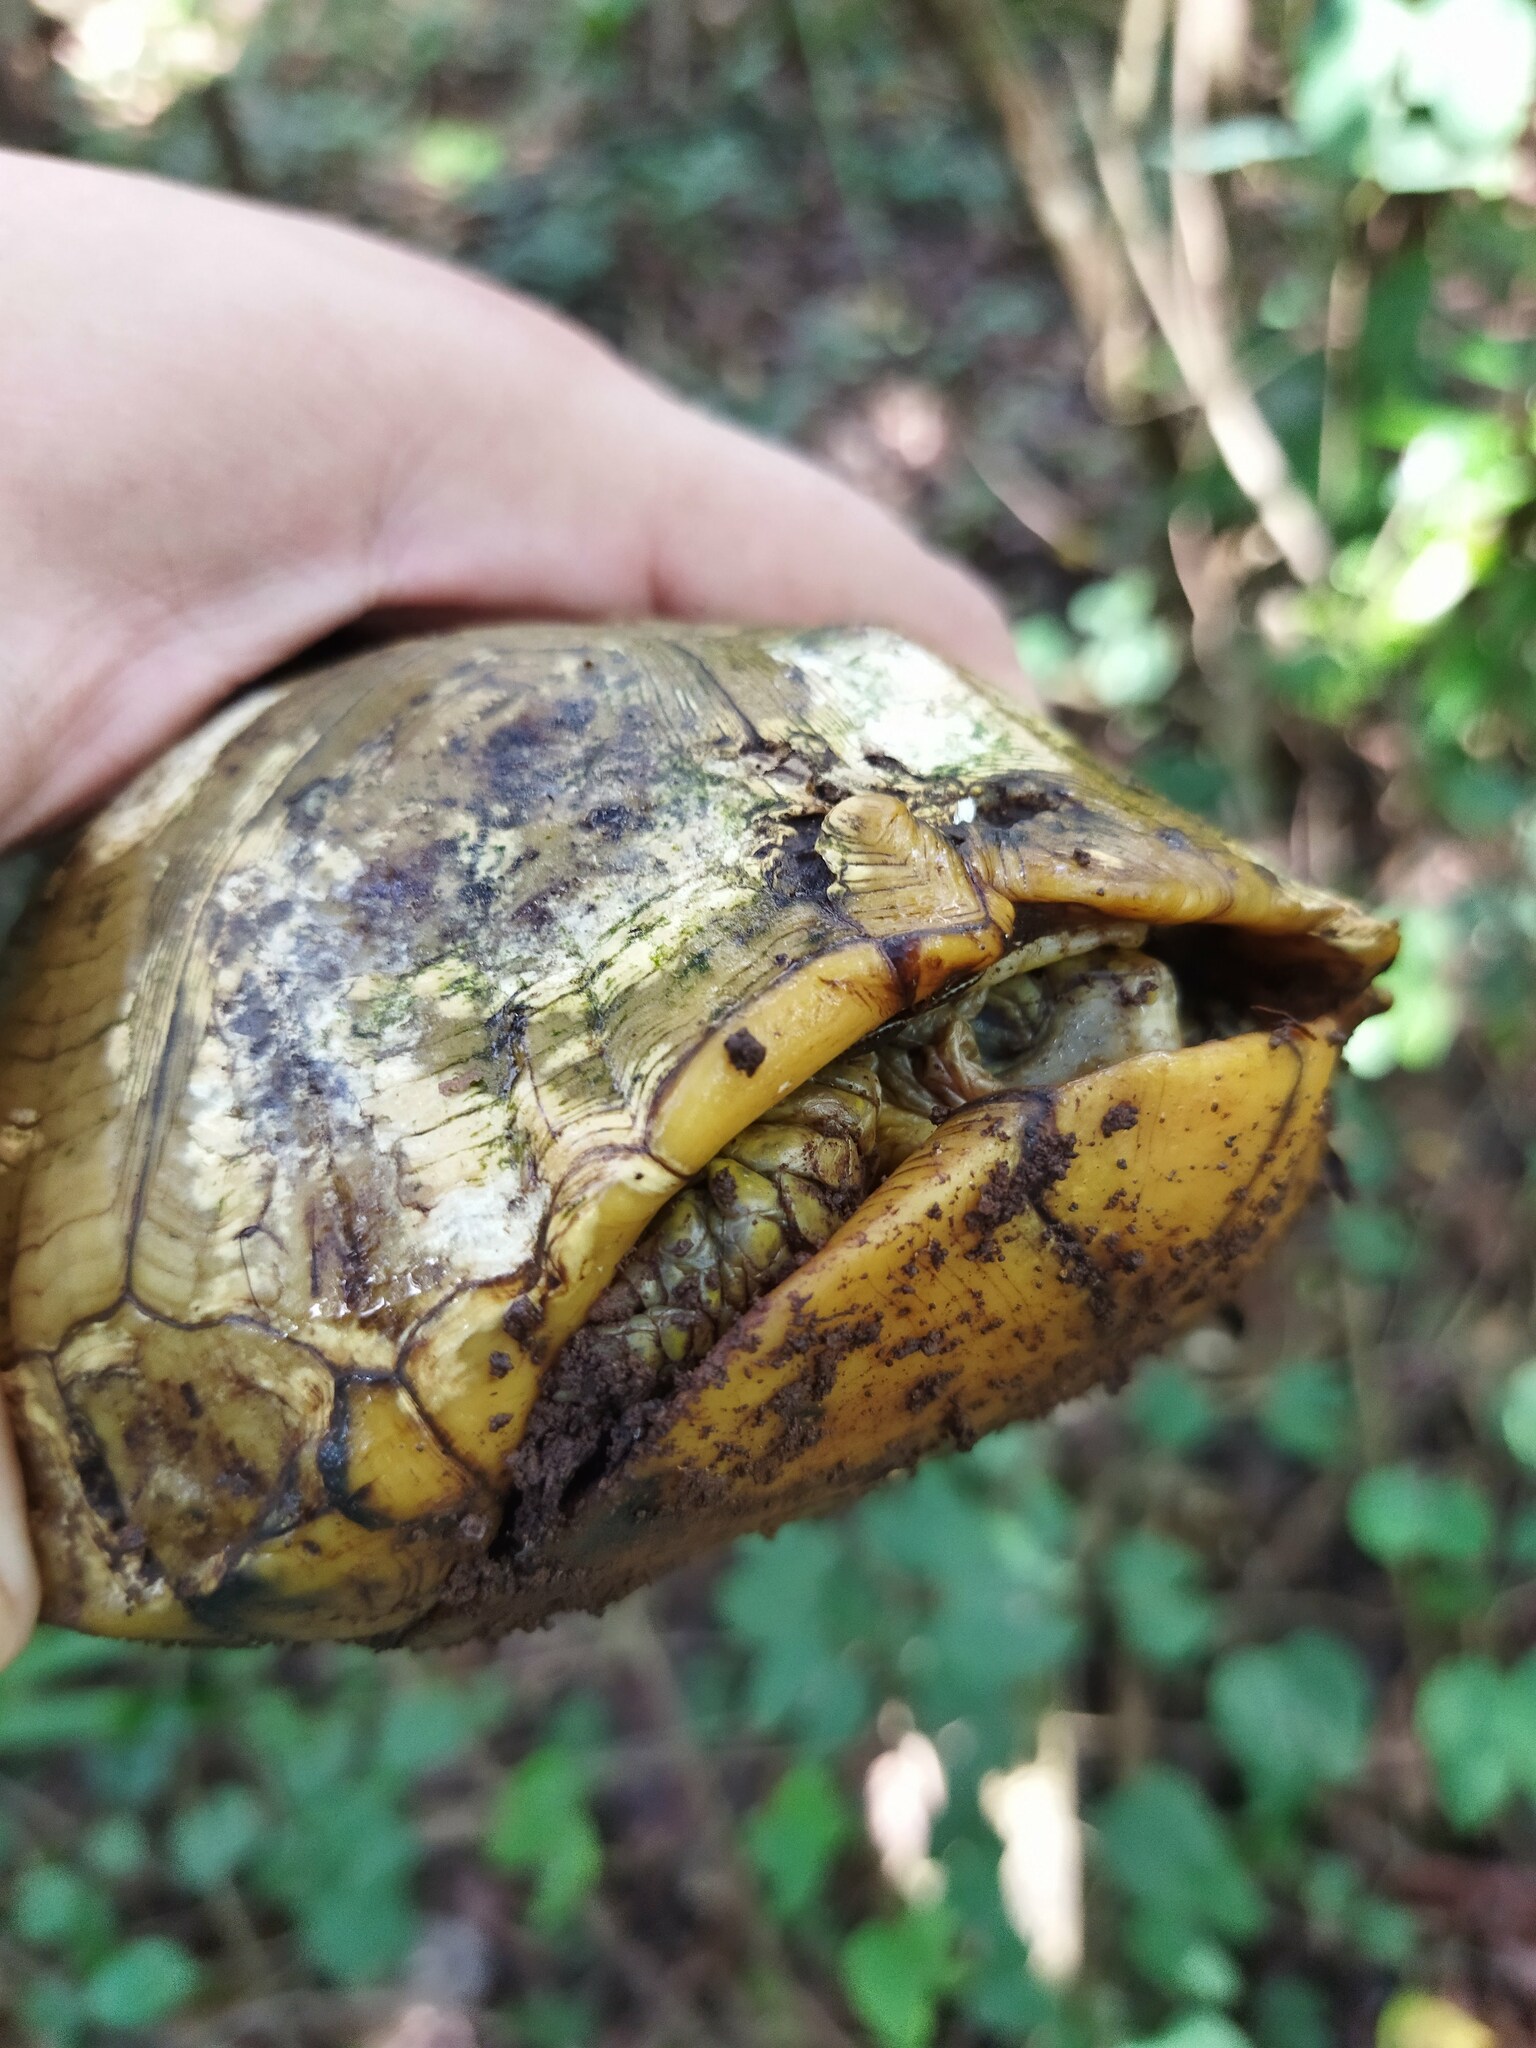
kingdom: Animalia
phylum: Chordata
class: Testudines
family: Emydidae
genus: Terrapene
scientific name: Terrapene yucatana
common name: Yucatan box turtle
